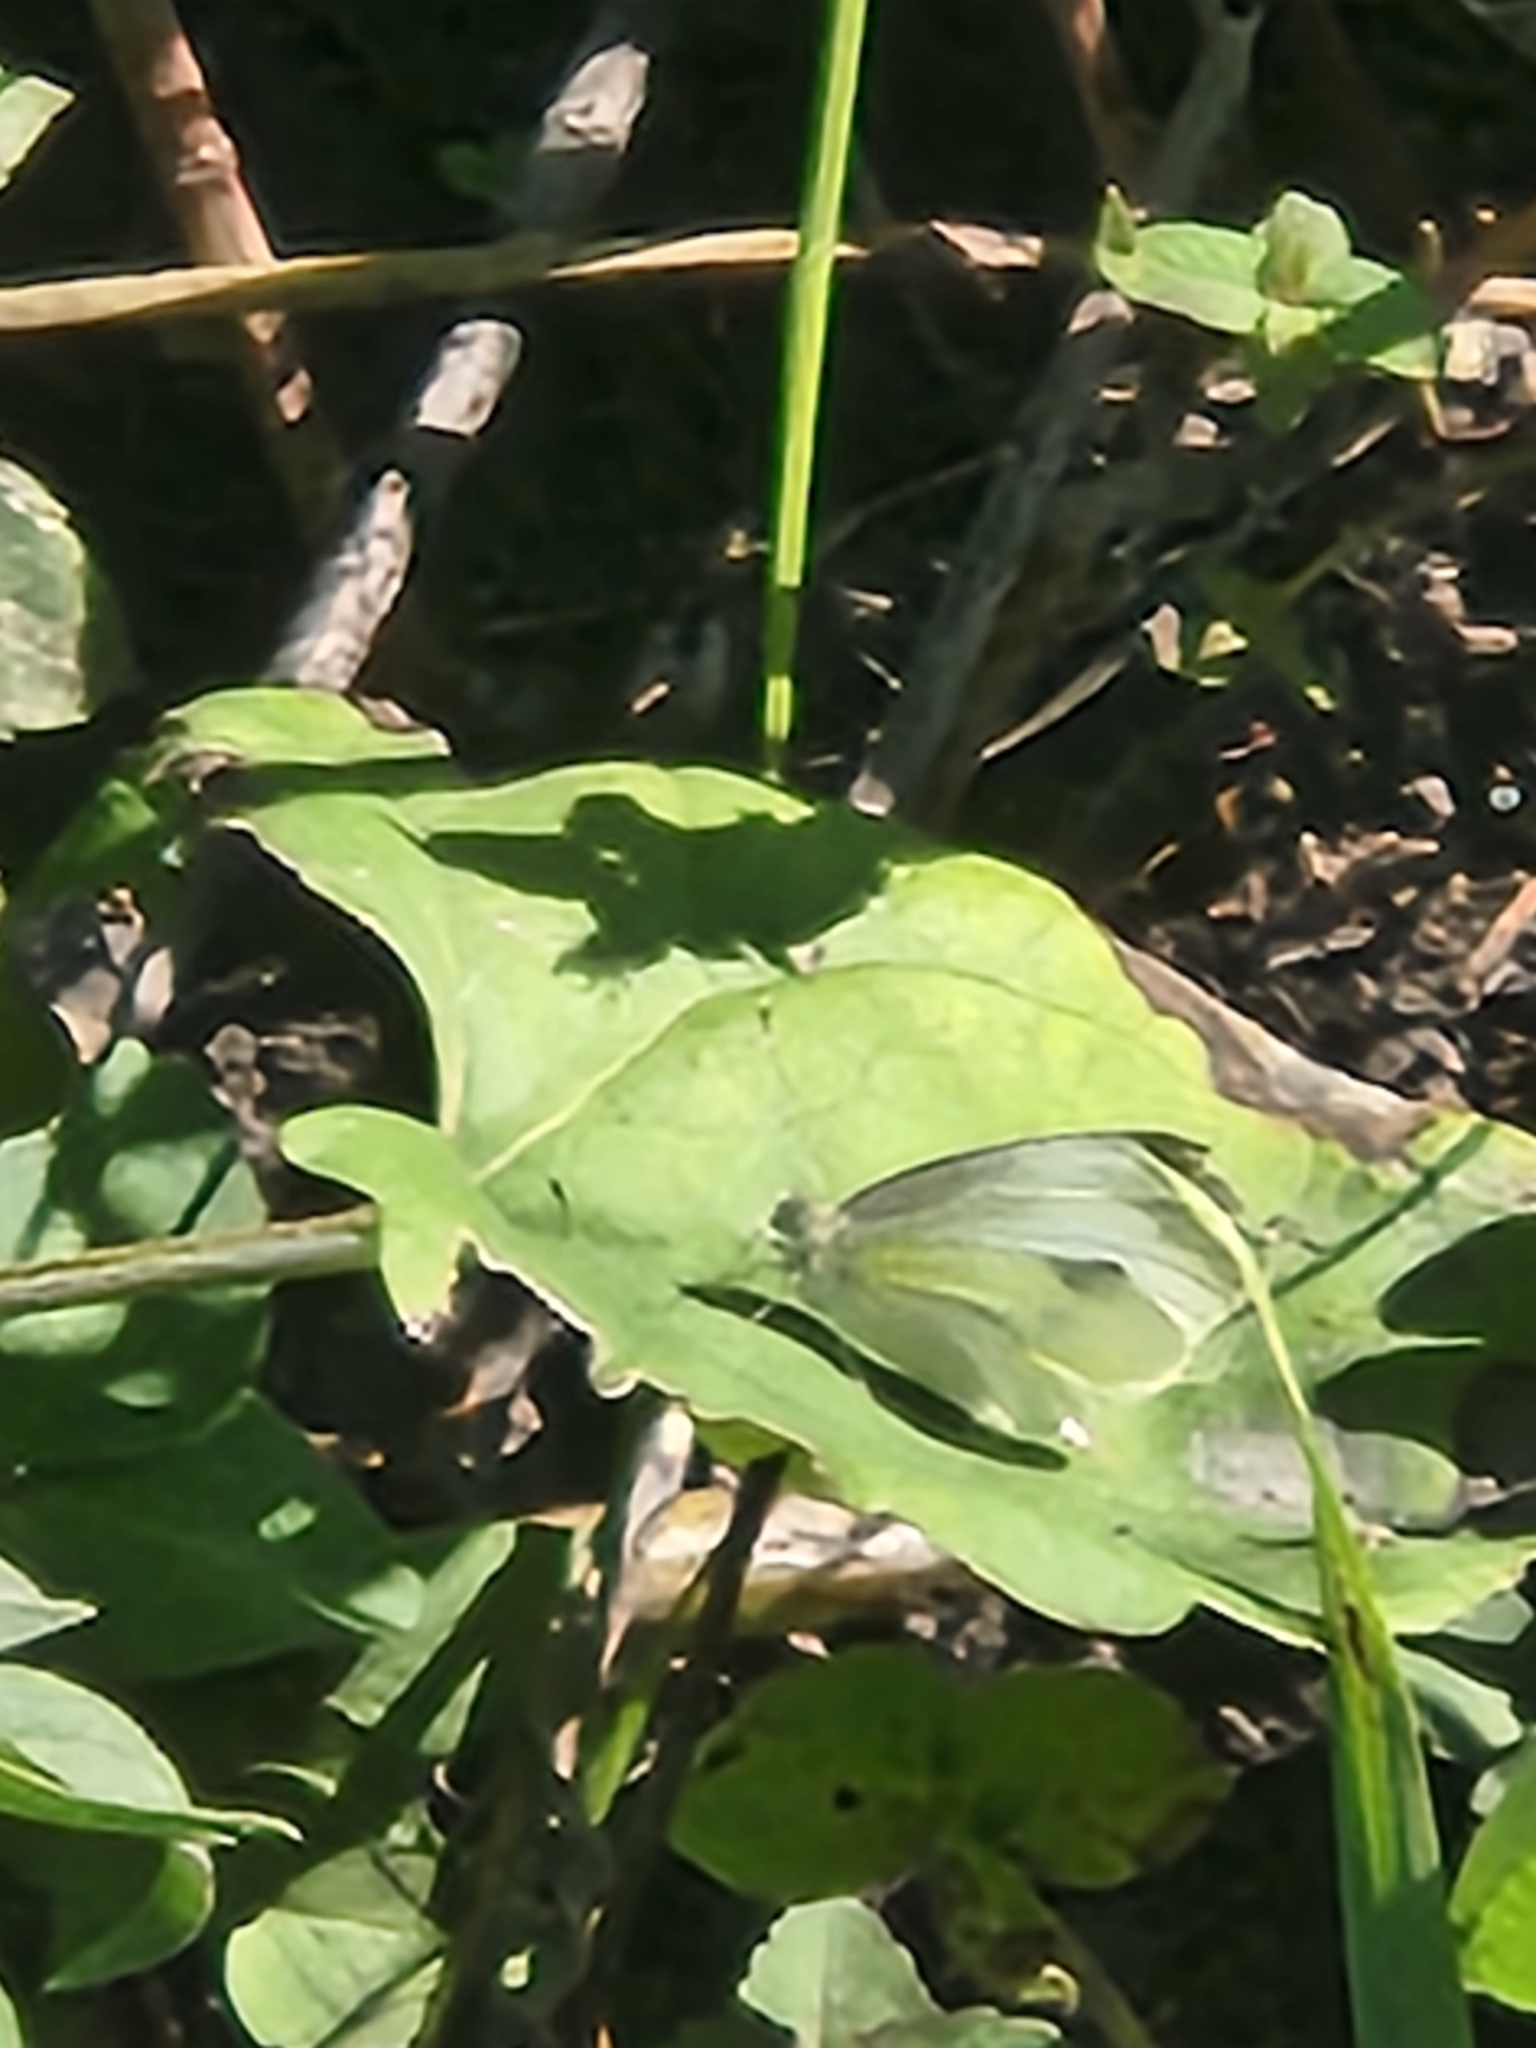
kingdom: Animalia
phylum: Arthropoda
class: Insecta
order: Lepidoptera
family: Pieridae
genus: Pieris
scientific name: Pieris rapae
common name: Small white
